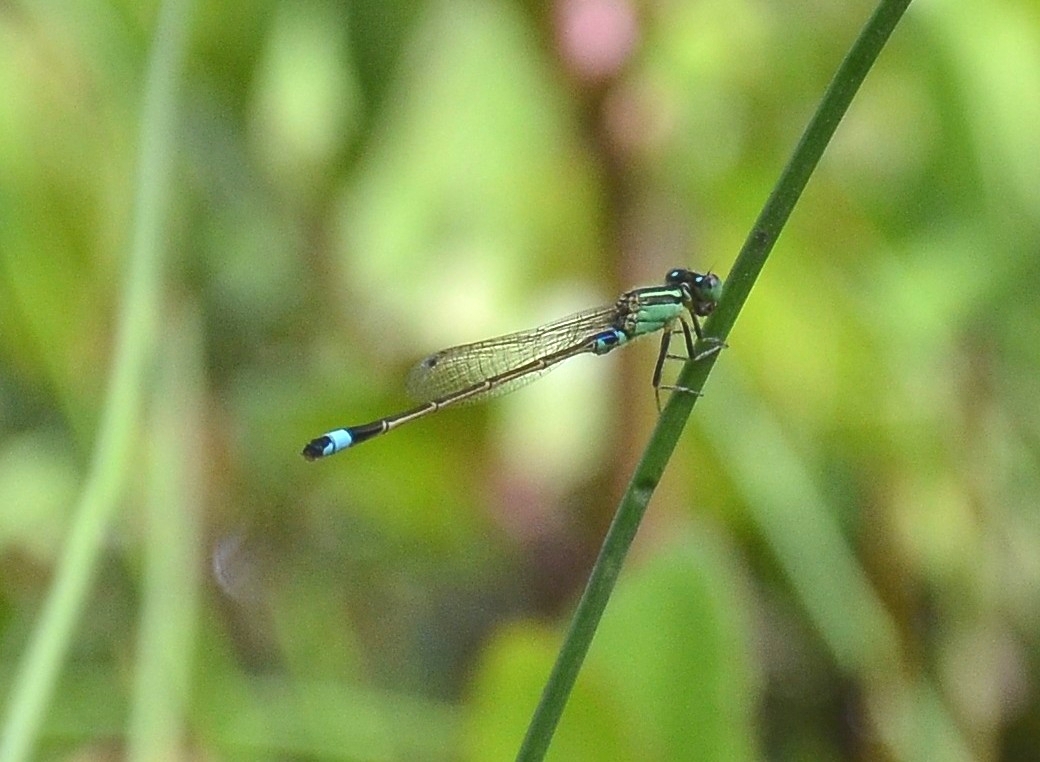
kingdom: Animalia
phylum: Arthropoda
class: Insecta
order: Odonata
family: Coenagrionidae
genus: Ischnura
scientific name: Ischnura senegalensis
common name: Tropical bluetail
